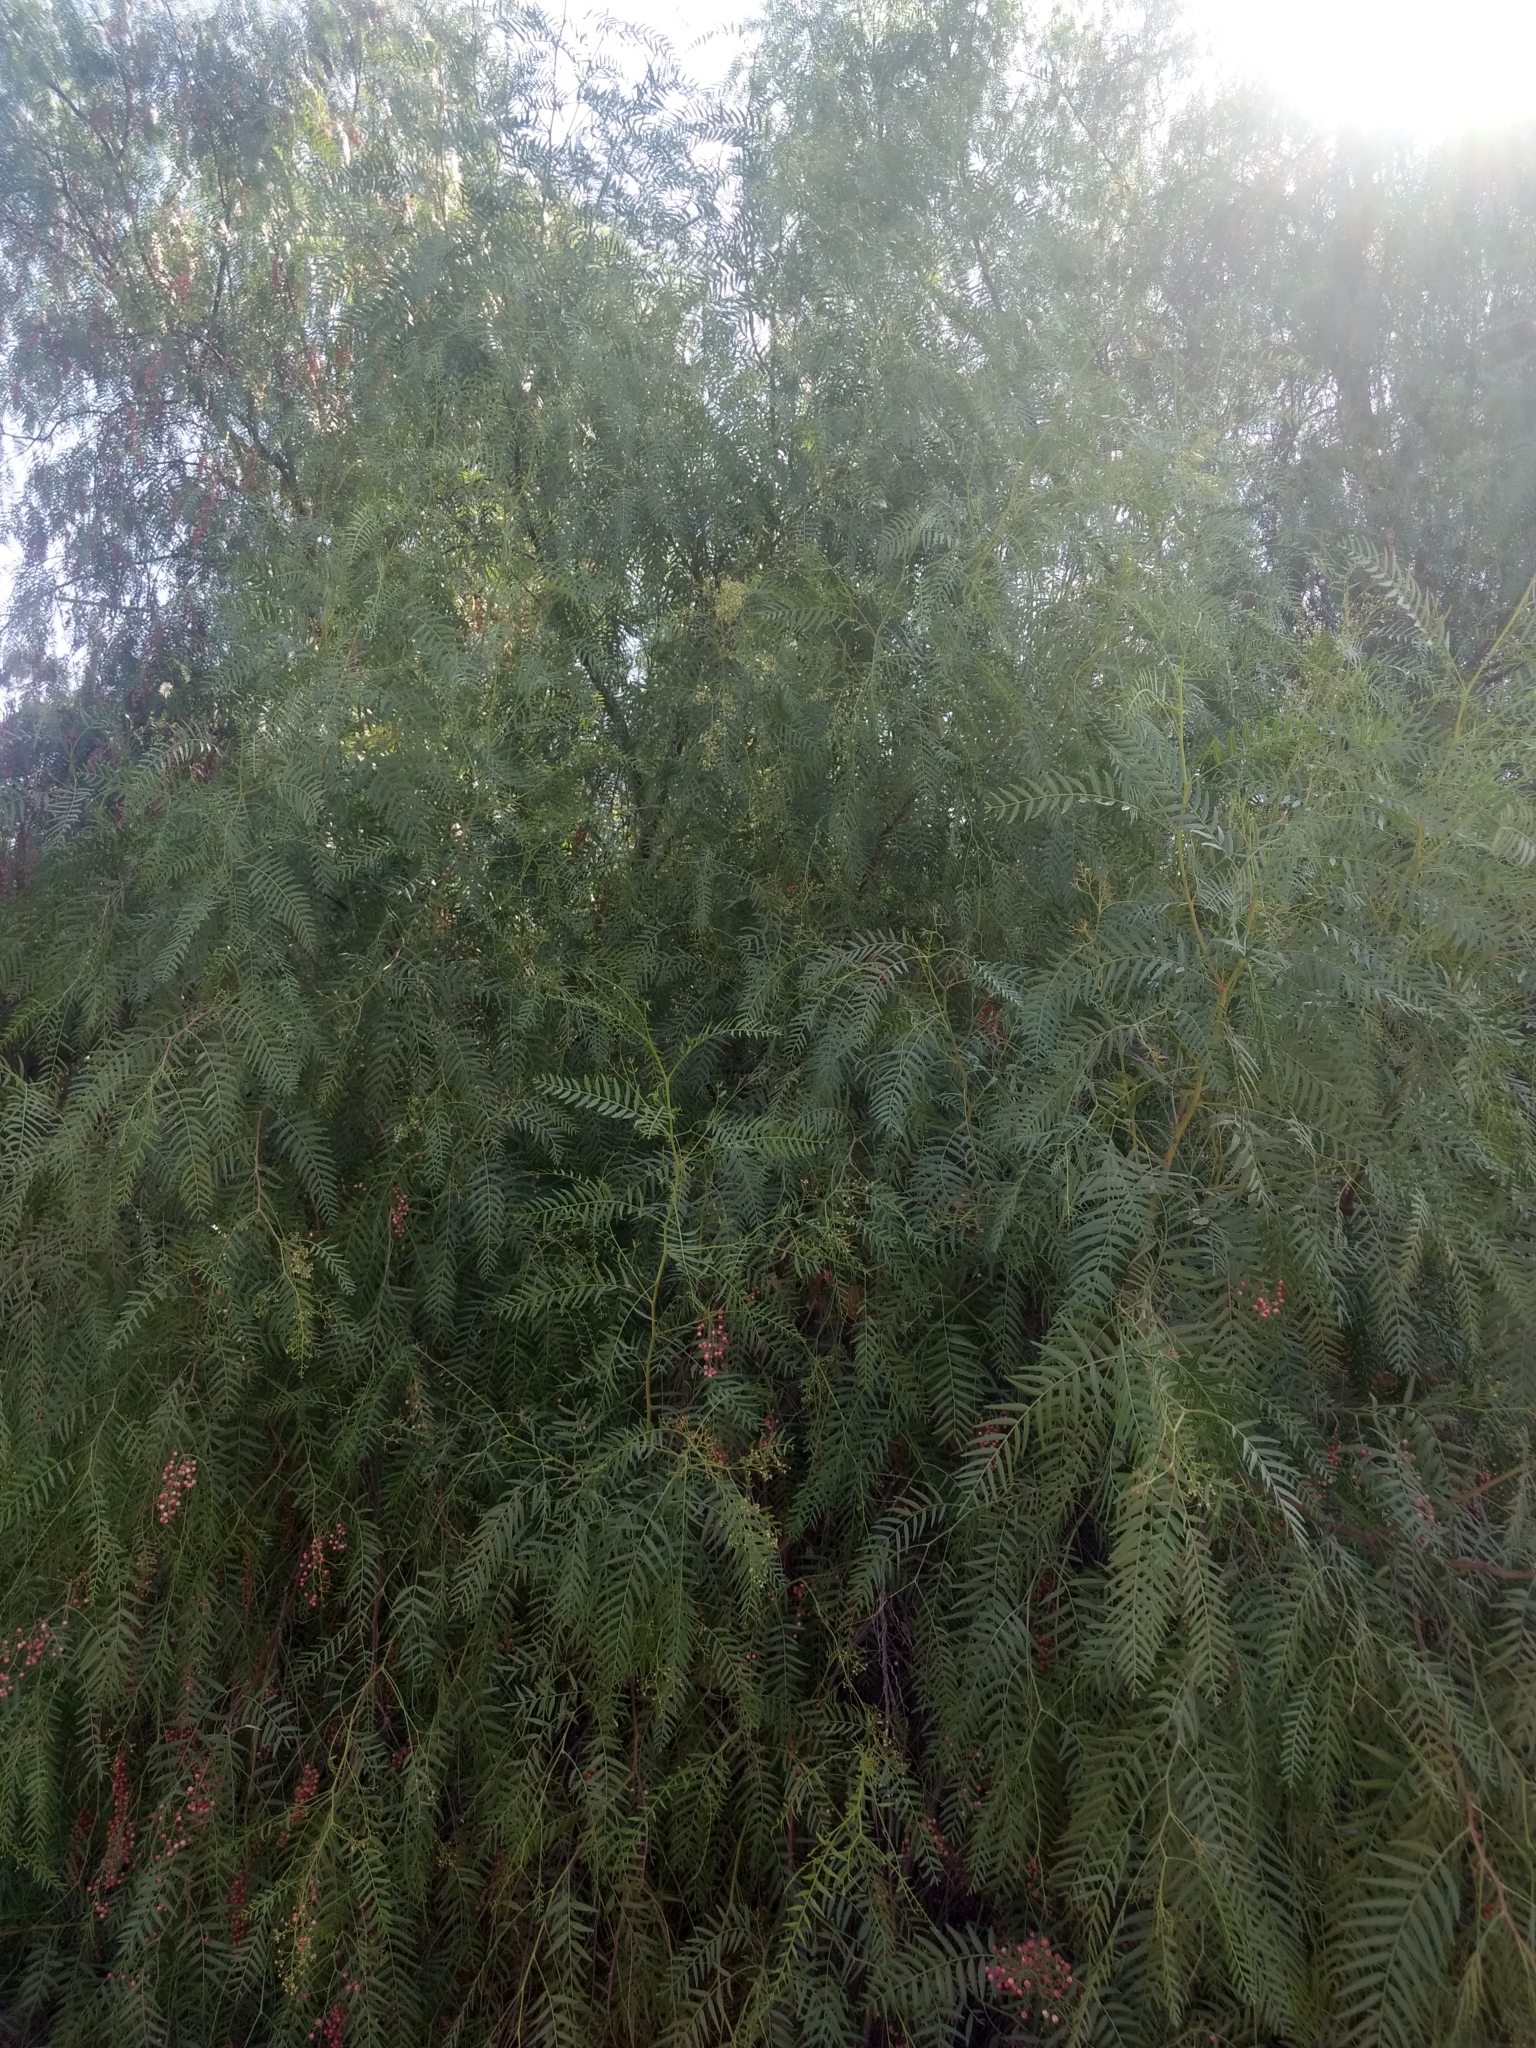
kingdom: Plantae
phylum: Tracheophyta
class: Magnoliopsida
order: Sapindales
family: Anacardiaceae
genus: Schinus
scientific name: Schinus molle
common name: Peruvian peppertree
